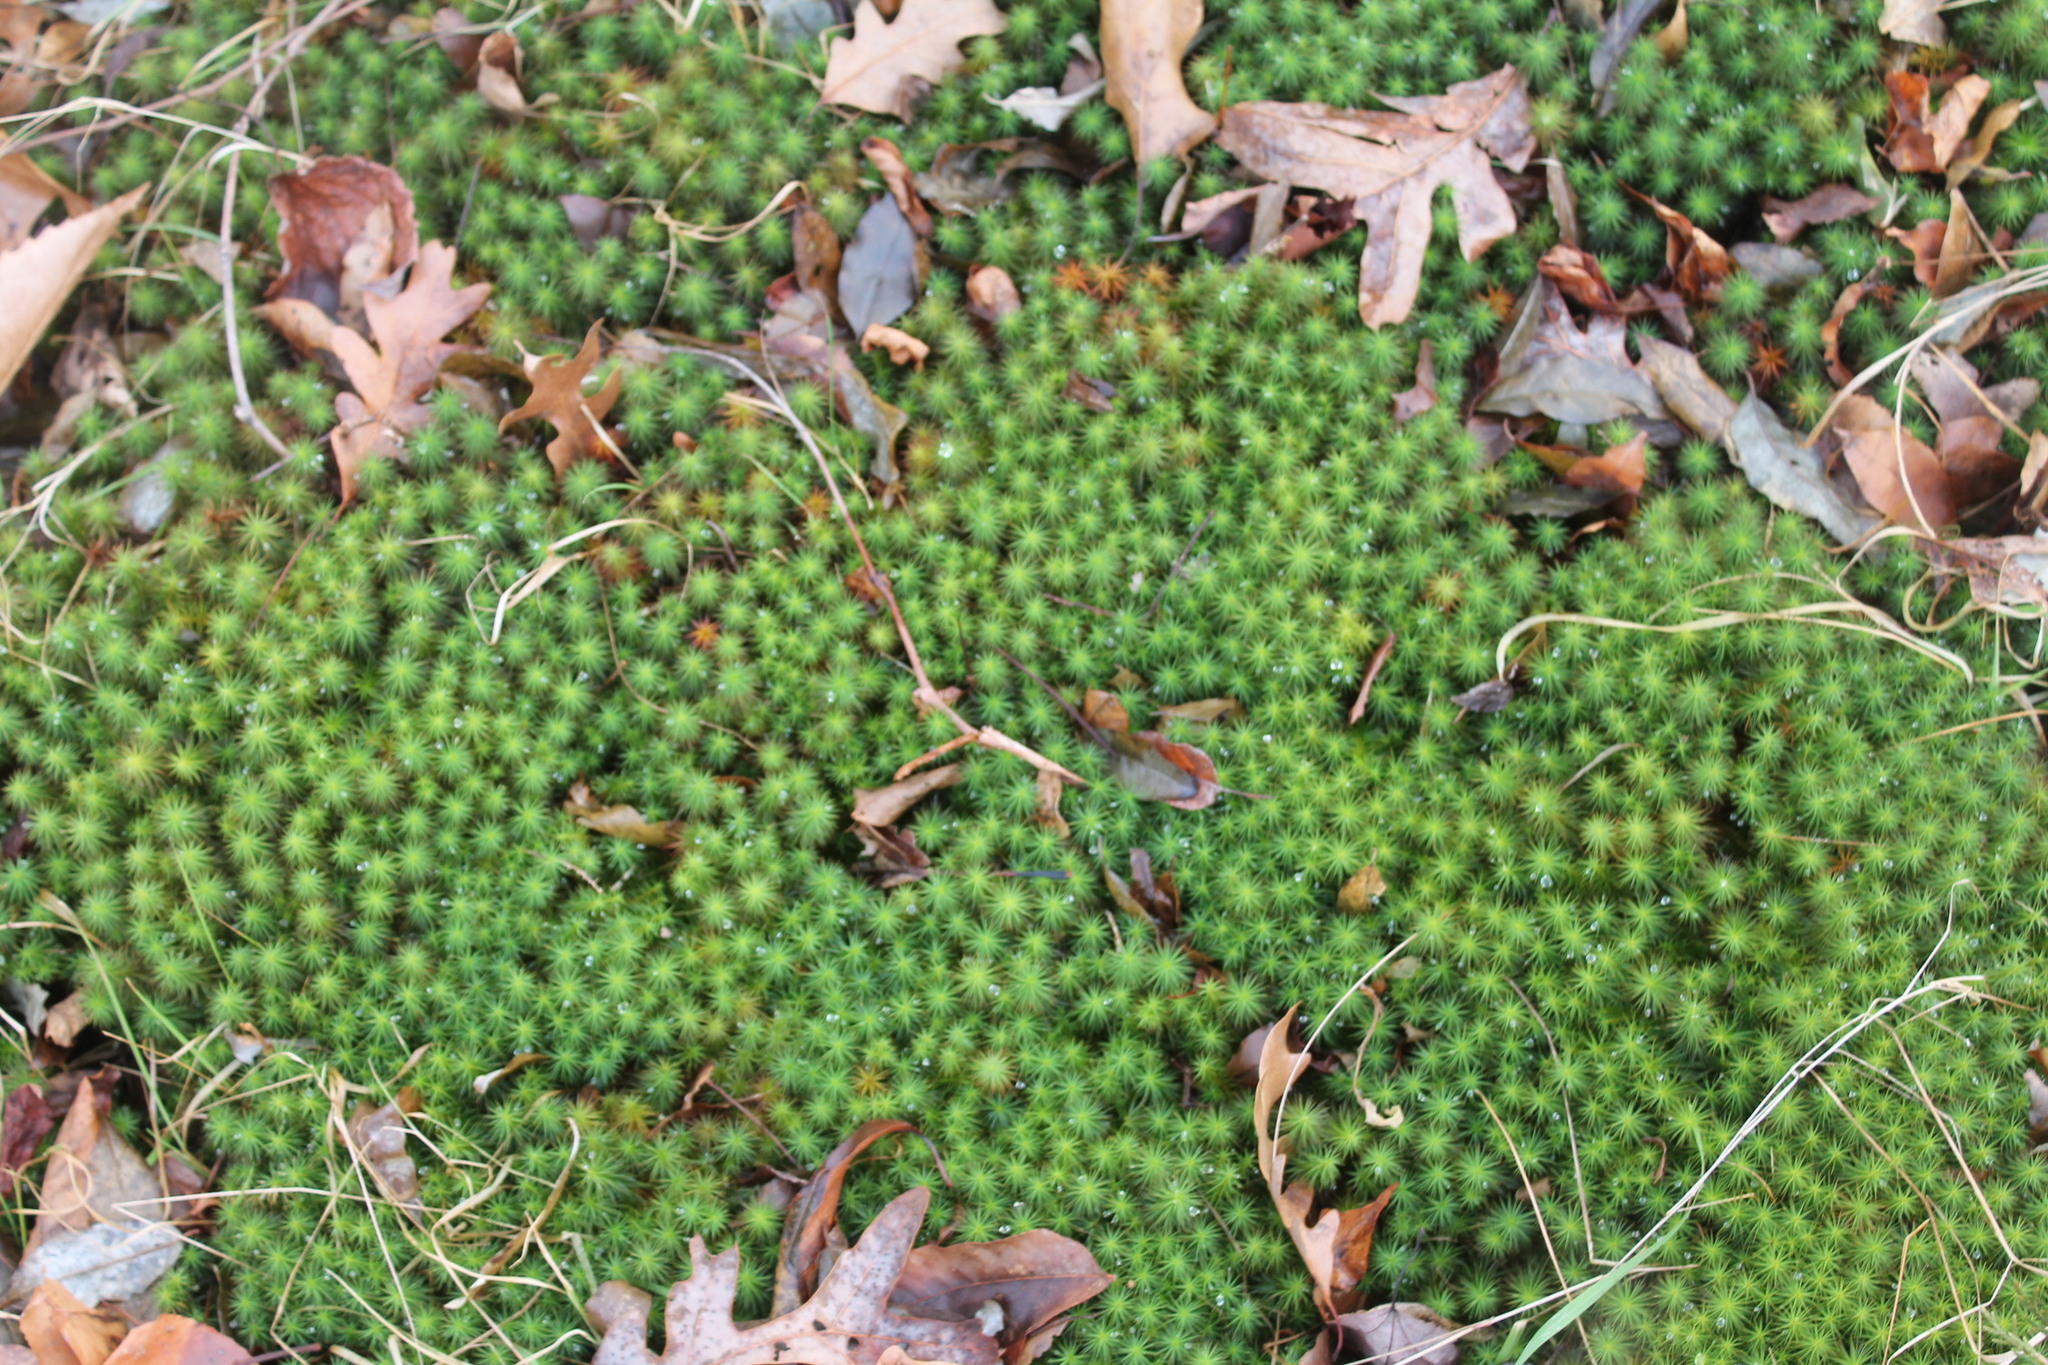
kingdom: Plantae
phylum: Bryophyta
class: Polytrichopsida
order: Polytrichales
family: Polytrichaceae
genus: Polytrichum
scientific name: Polytrichum commune
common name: Common haircap
